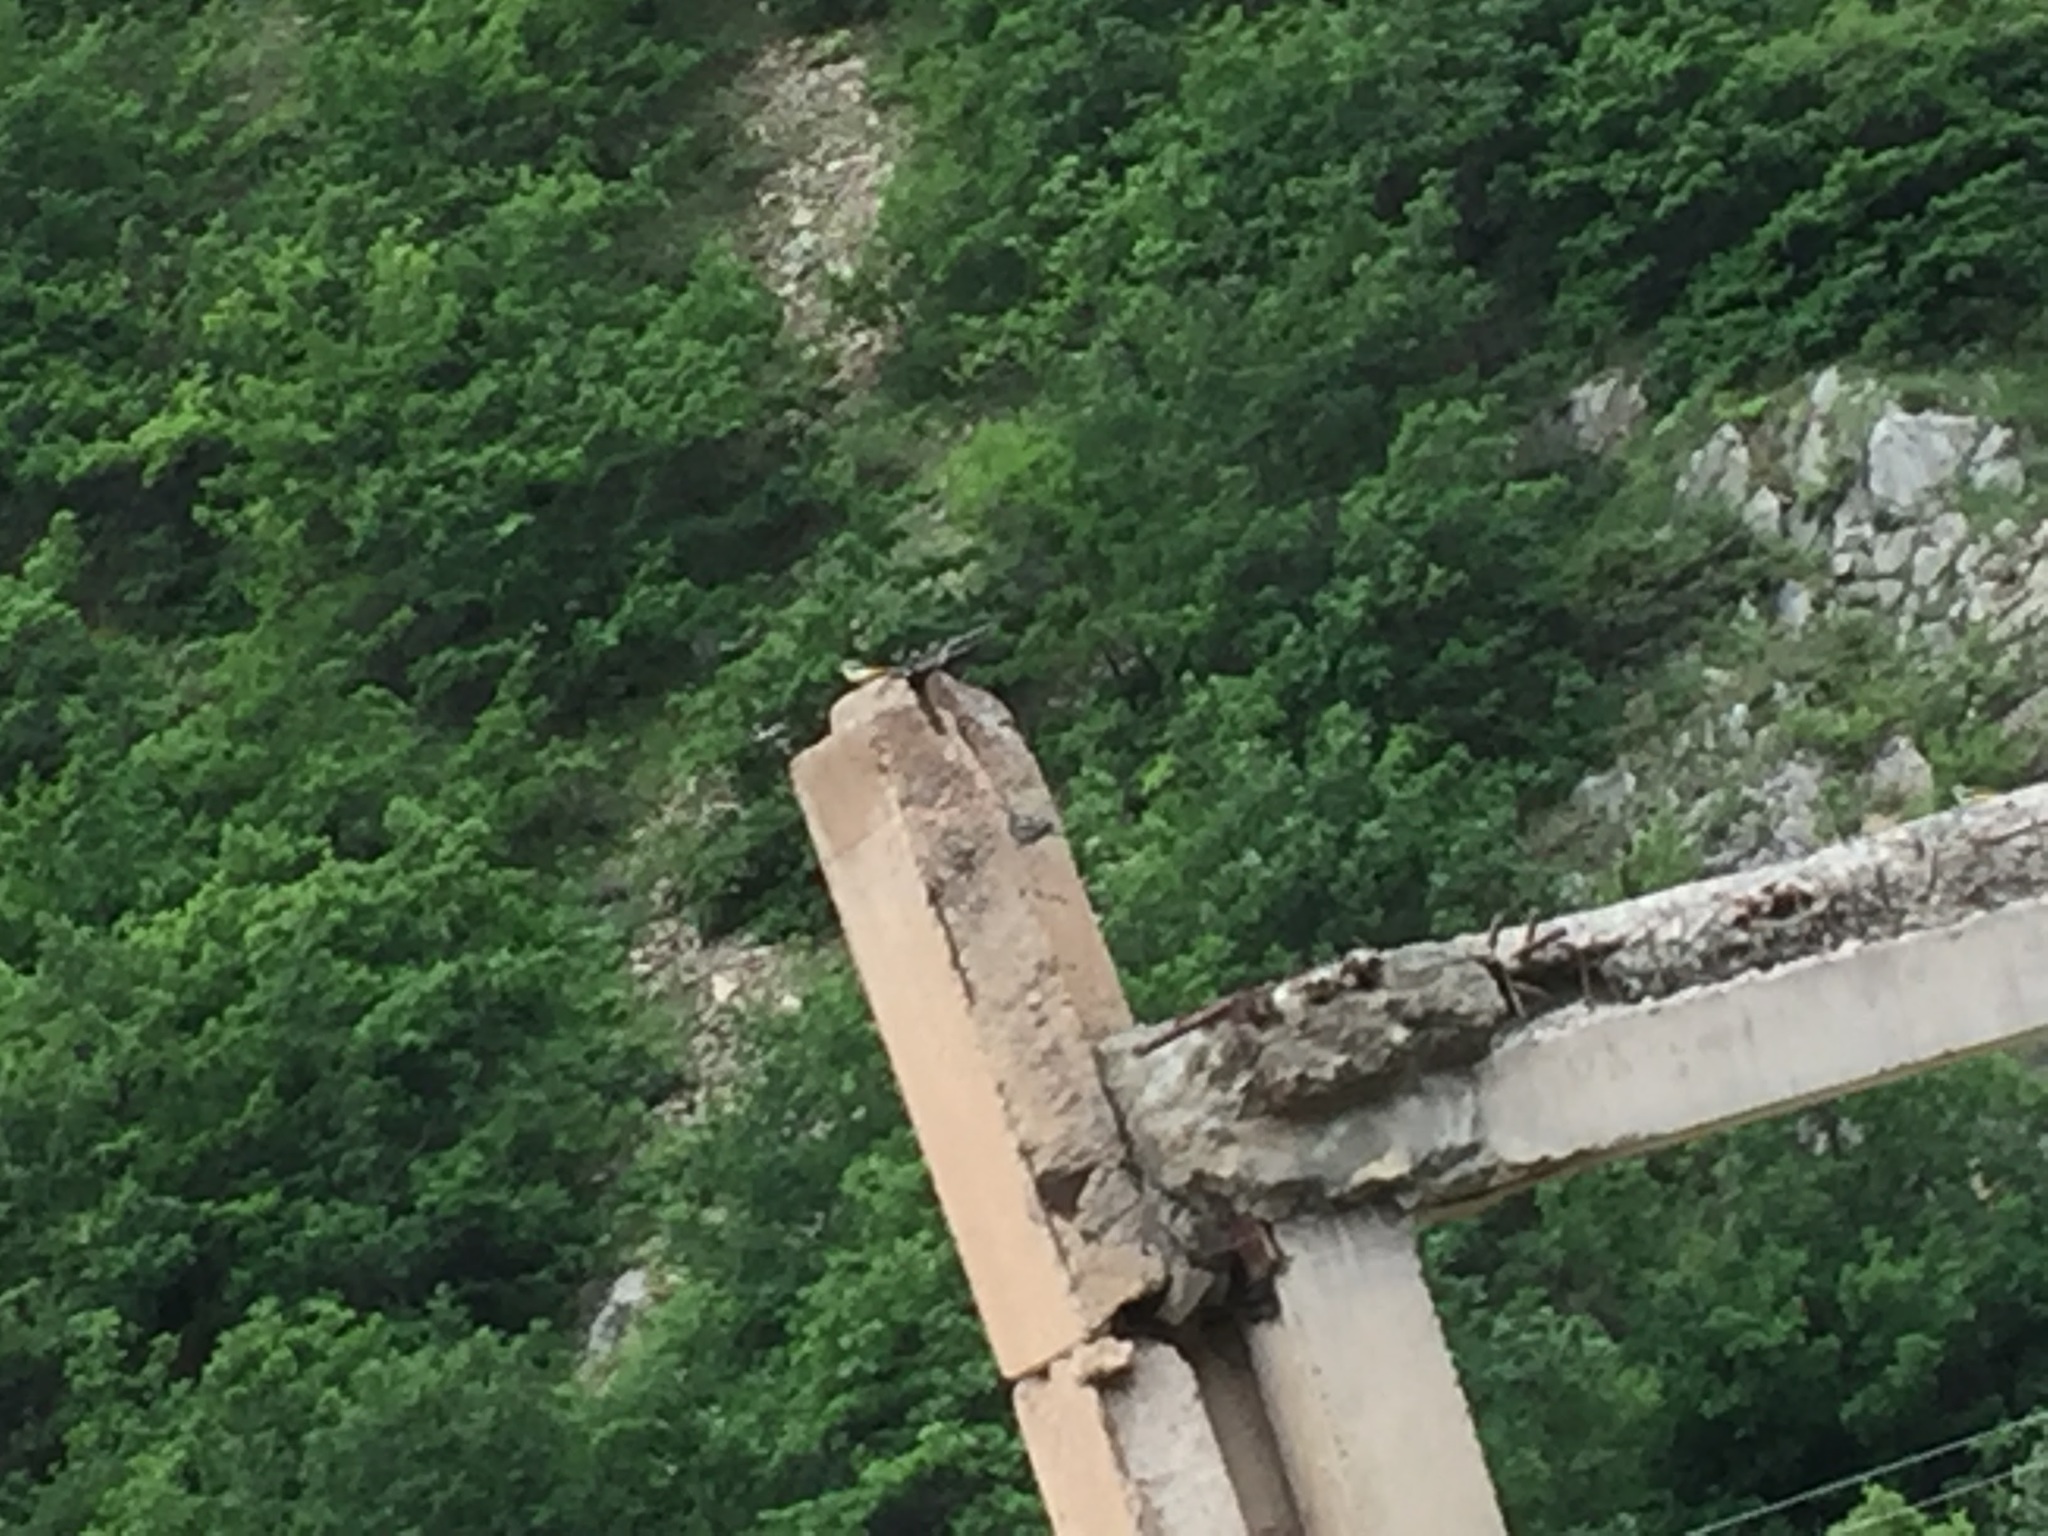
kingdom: Animalia
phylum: Chordata
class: Aves
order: Passeriformes
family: Motacillidae
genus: Motacilla
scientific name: Motacilla cinerea
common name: Grey wagtail
